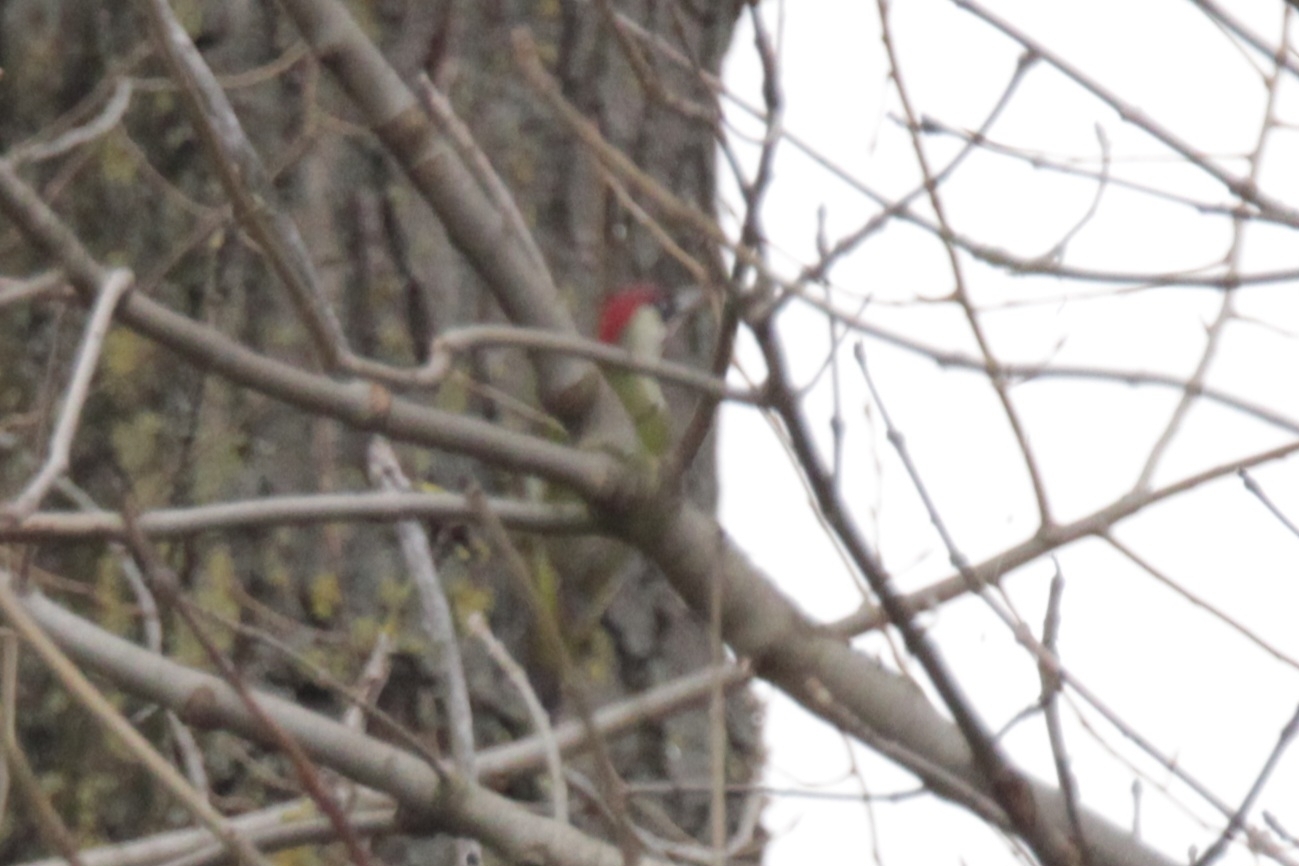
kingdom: Animalia
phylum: Chordata
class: Aves
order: Piciformes
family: Picidae
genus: Picus
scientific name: Picus viridis
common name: European green woodpecker
